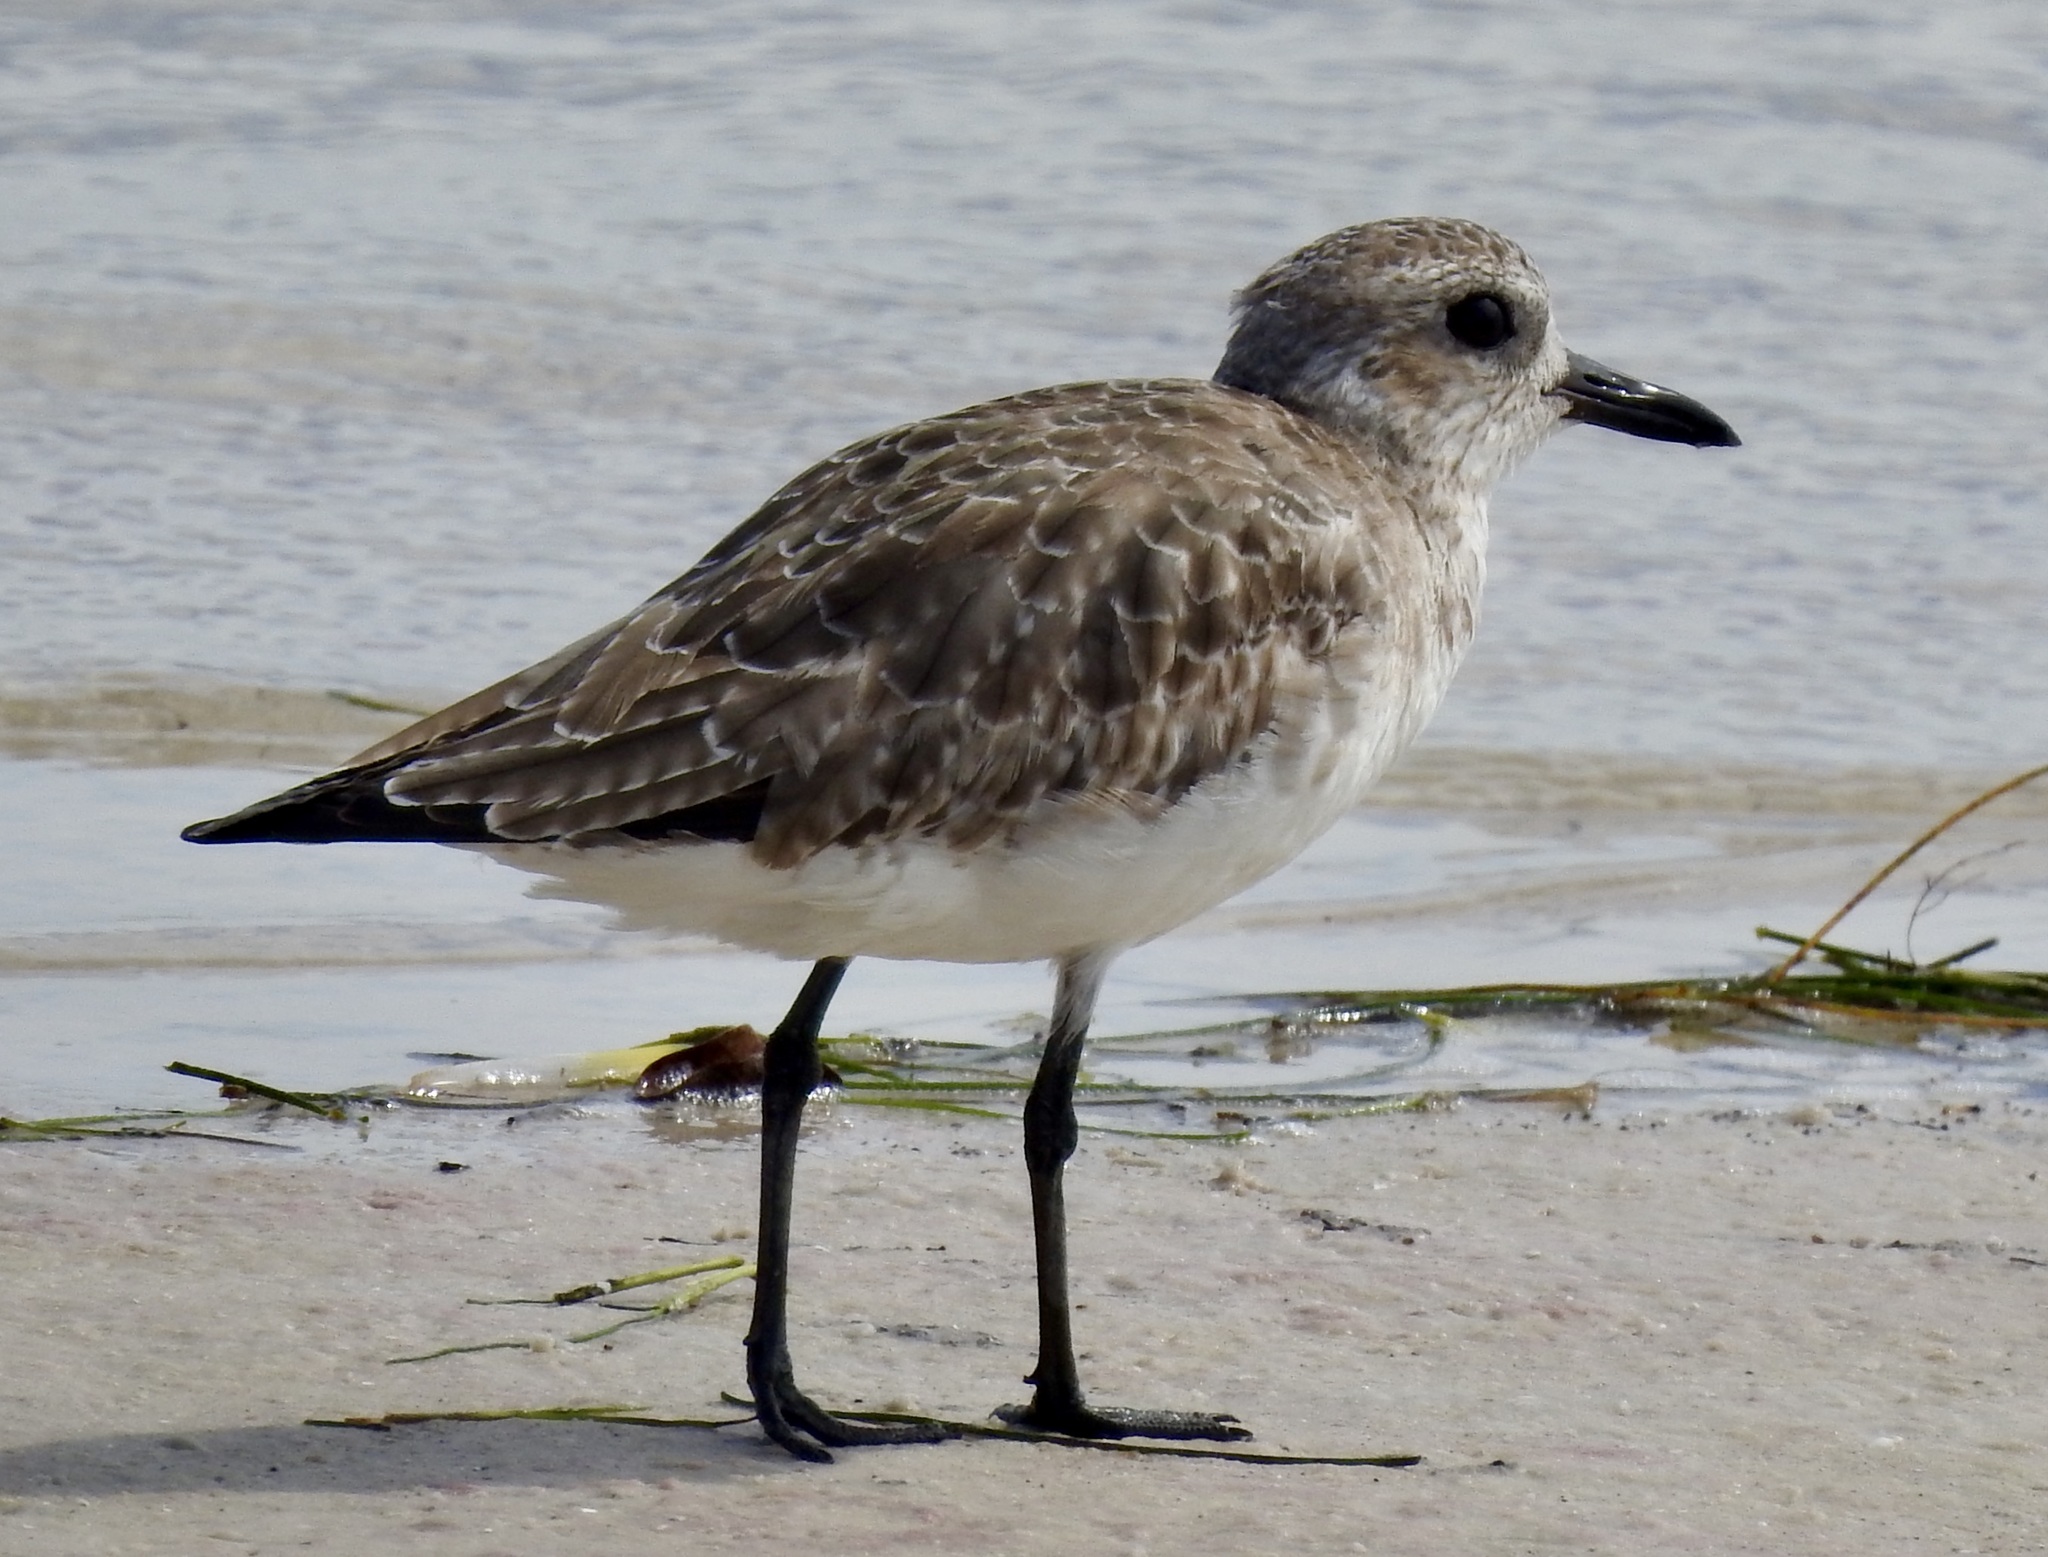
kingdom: Animalia
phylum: Chordata
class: Aves
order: Charadriiformes
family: Charadriidae
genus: Pluvialis
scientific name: Pluvialis squatarola
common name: Grey plover
